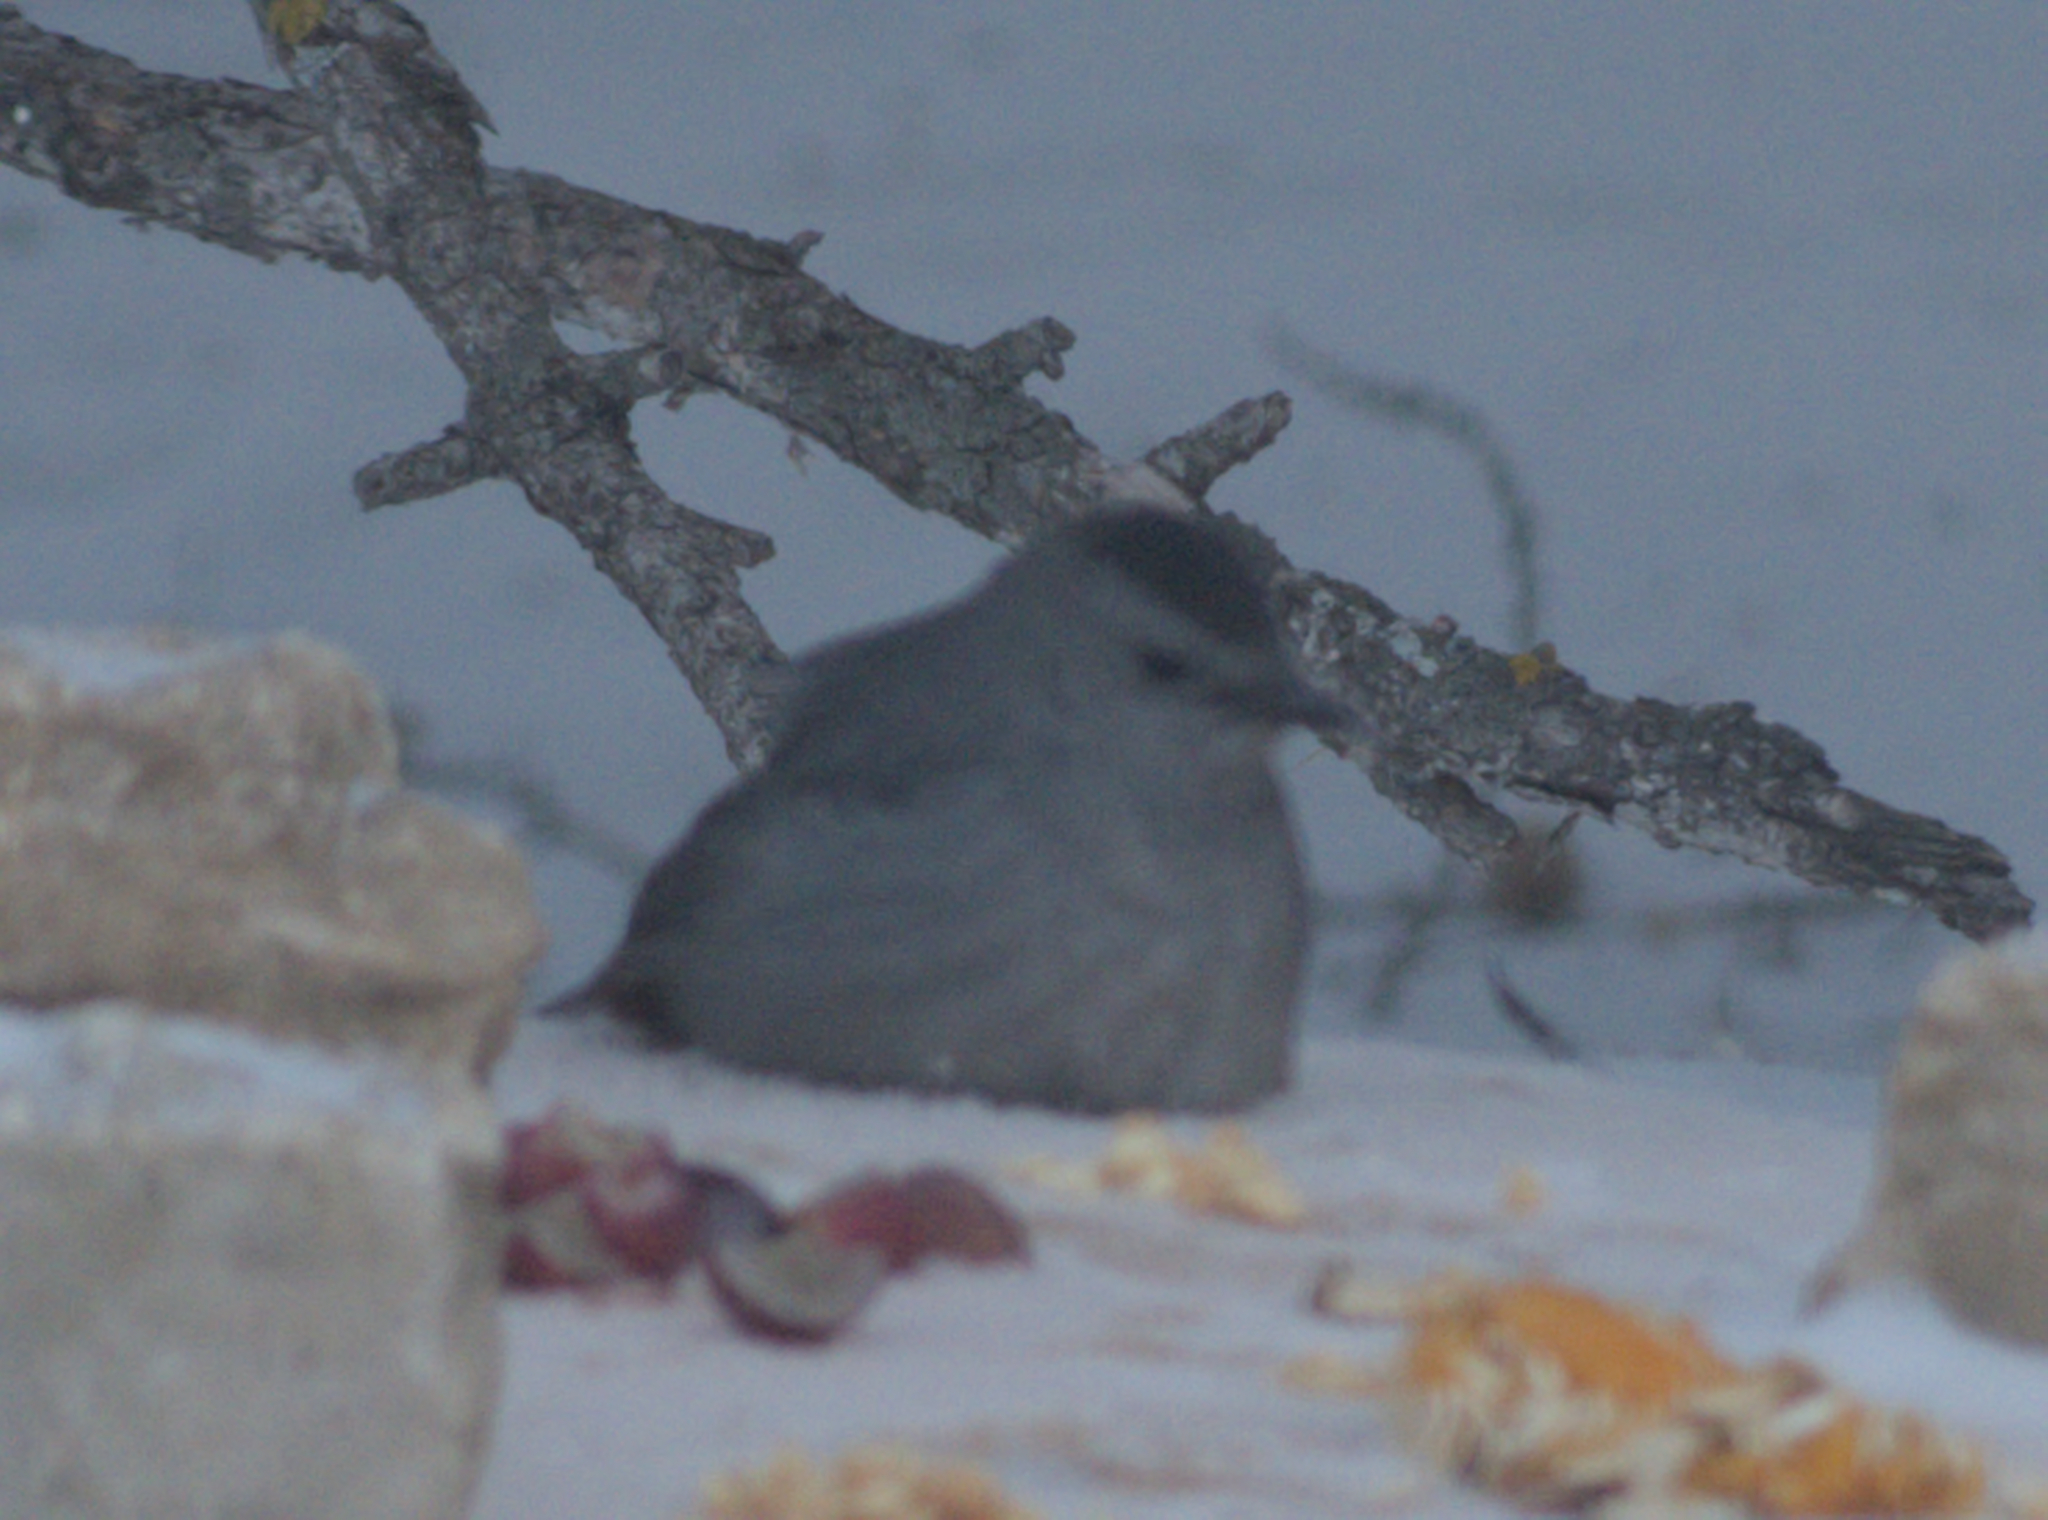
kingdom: Animalia
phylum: Chordata
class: Aves
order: Passeriformes
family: Mimidae
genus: Dumetella
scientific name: Dumetella carolinensis
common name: Gray catbird
